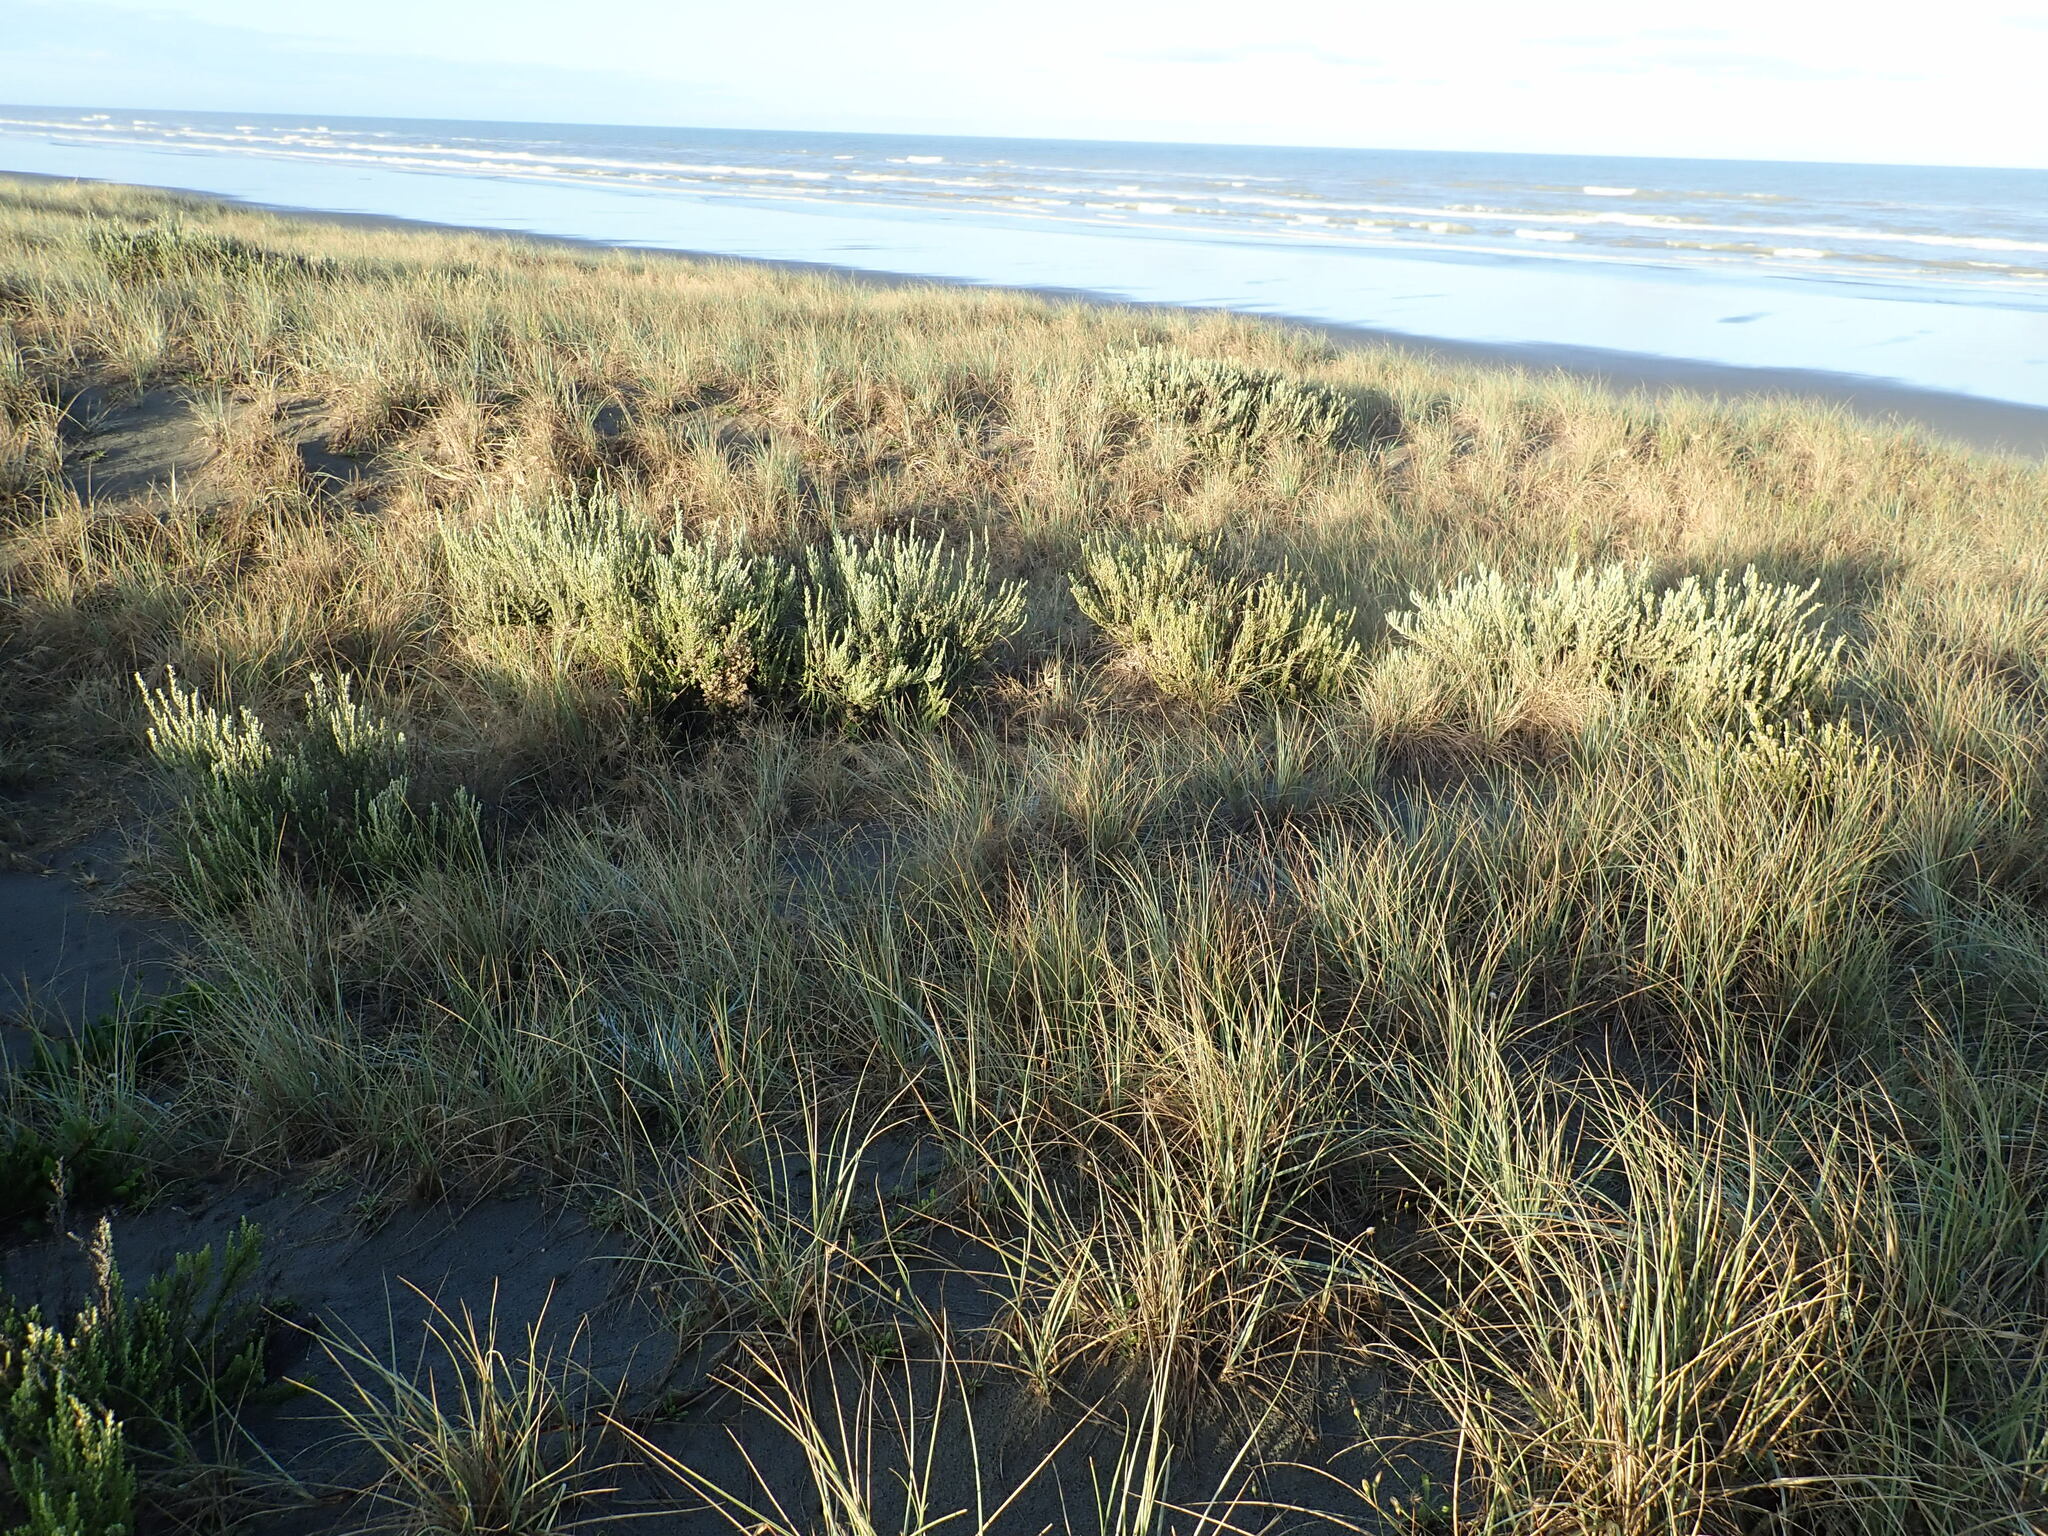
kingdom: Plantae
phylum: Tracheophyta
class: Magnoliopsida
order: Asterales
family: Asteraceae
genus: Ozothamnus
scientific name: Ozothamnus leptophyllus
